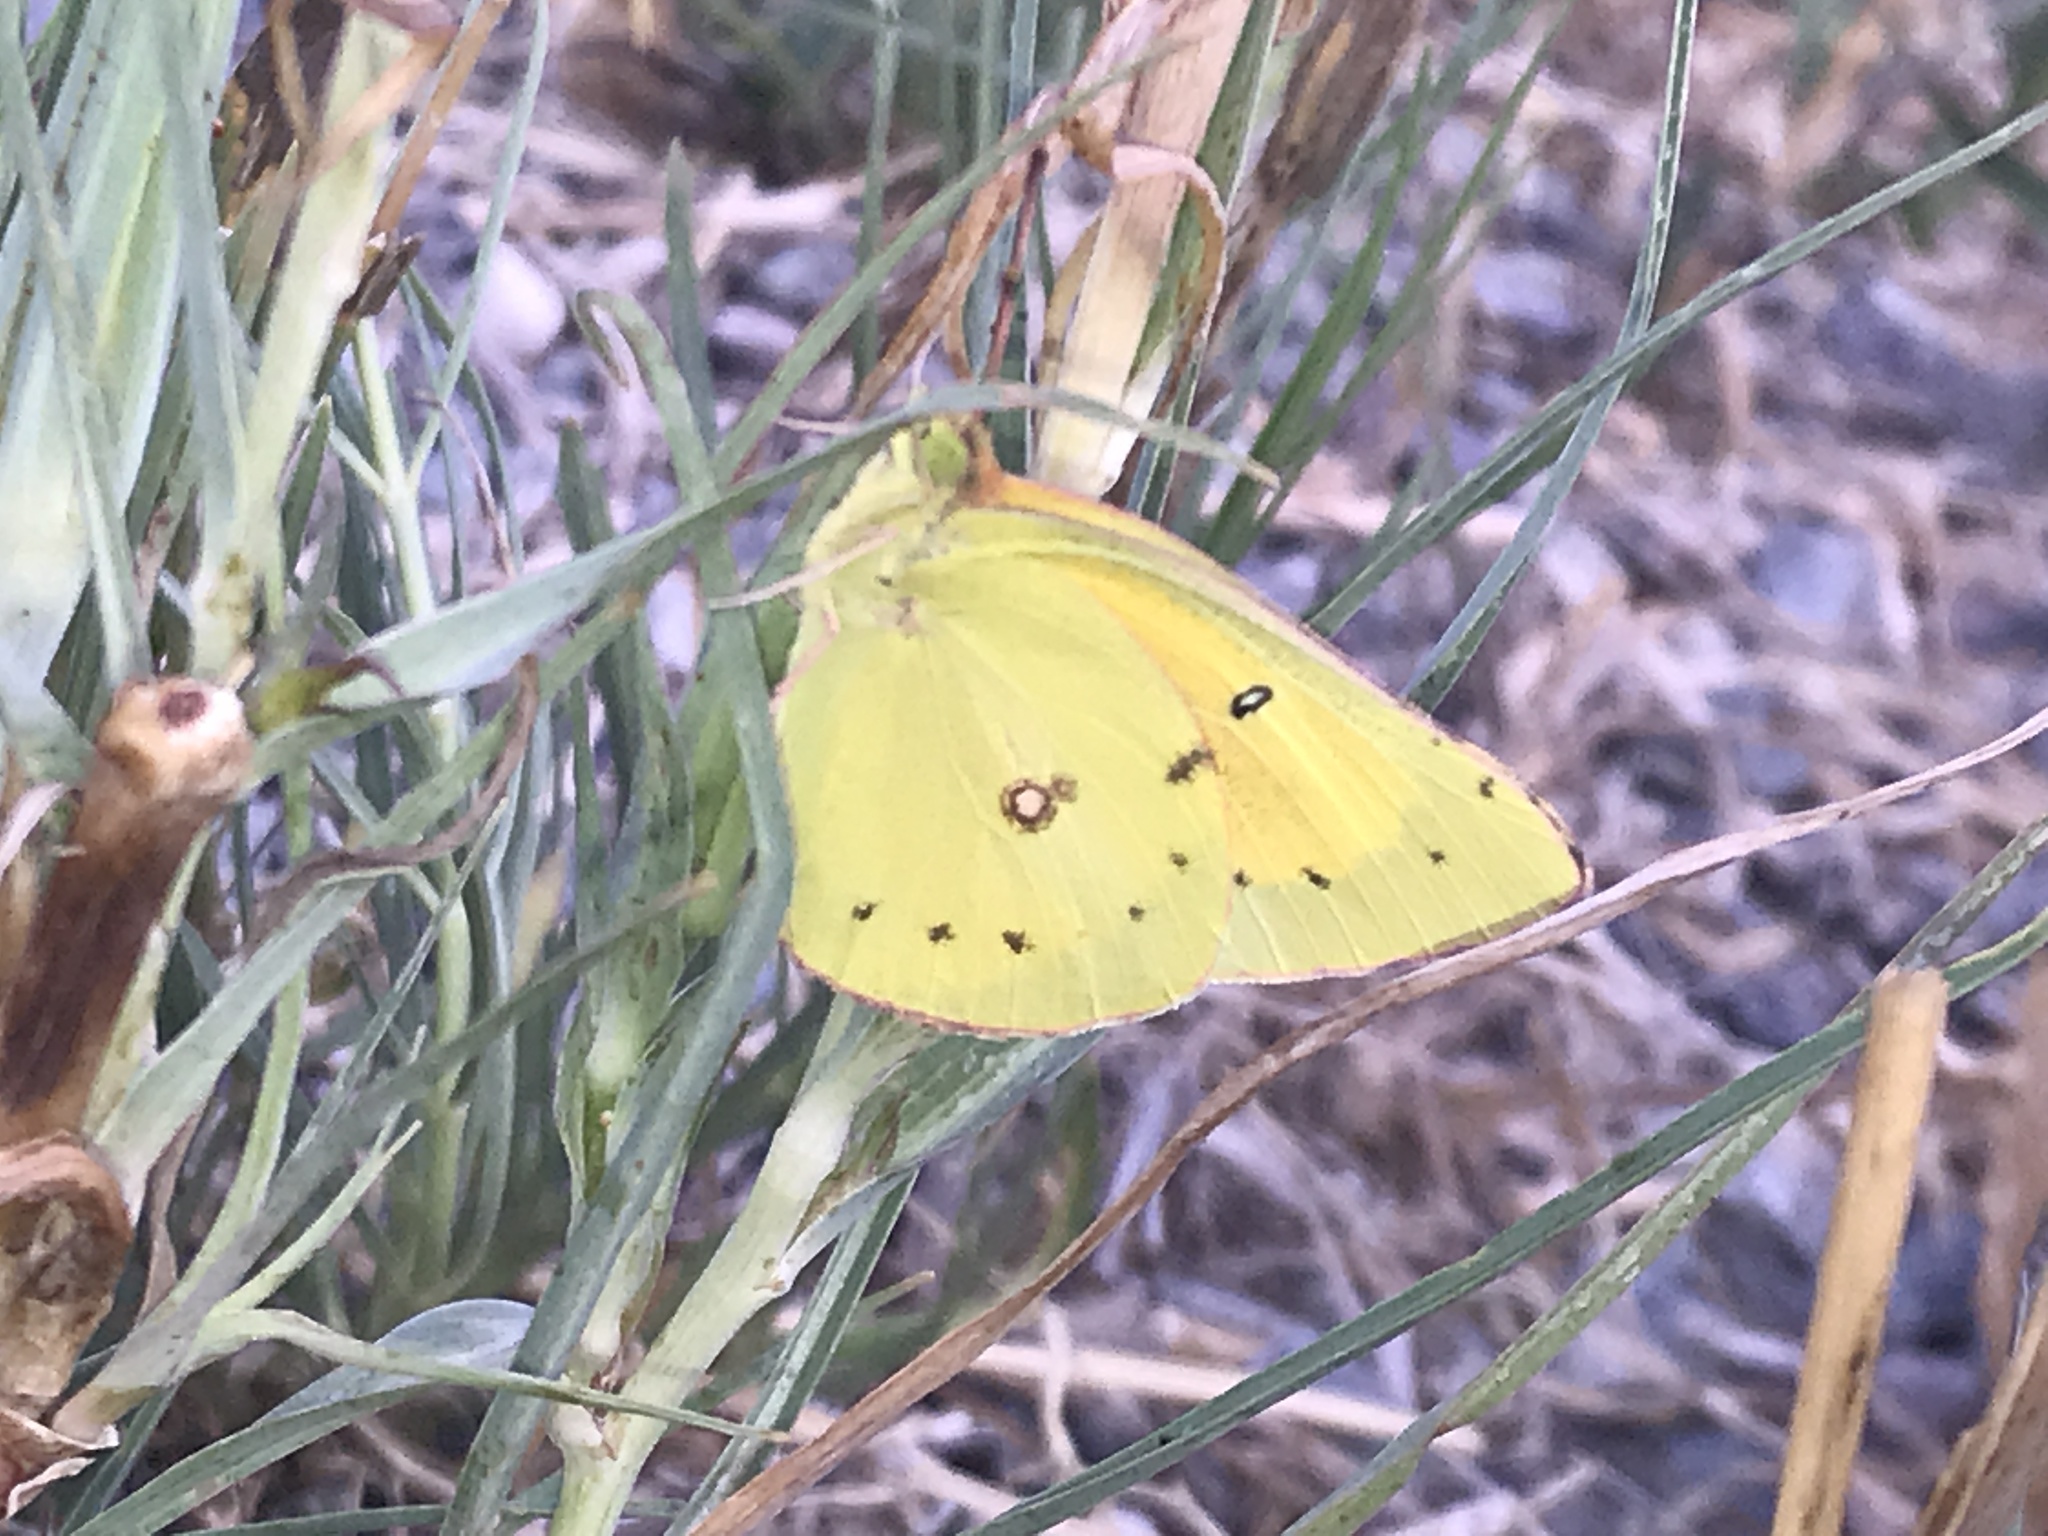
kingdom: Animalia
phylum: Arthropoda
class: Insecta
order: Lepidoptera
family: Pieridae
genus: Colias
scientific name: Colias eurytheme
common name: Alfalfa butterfly
